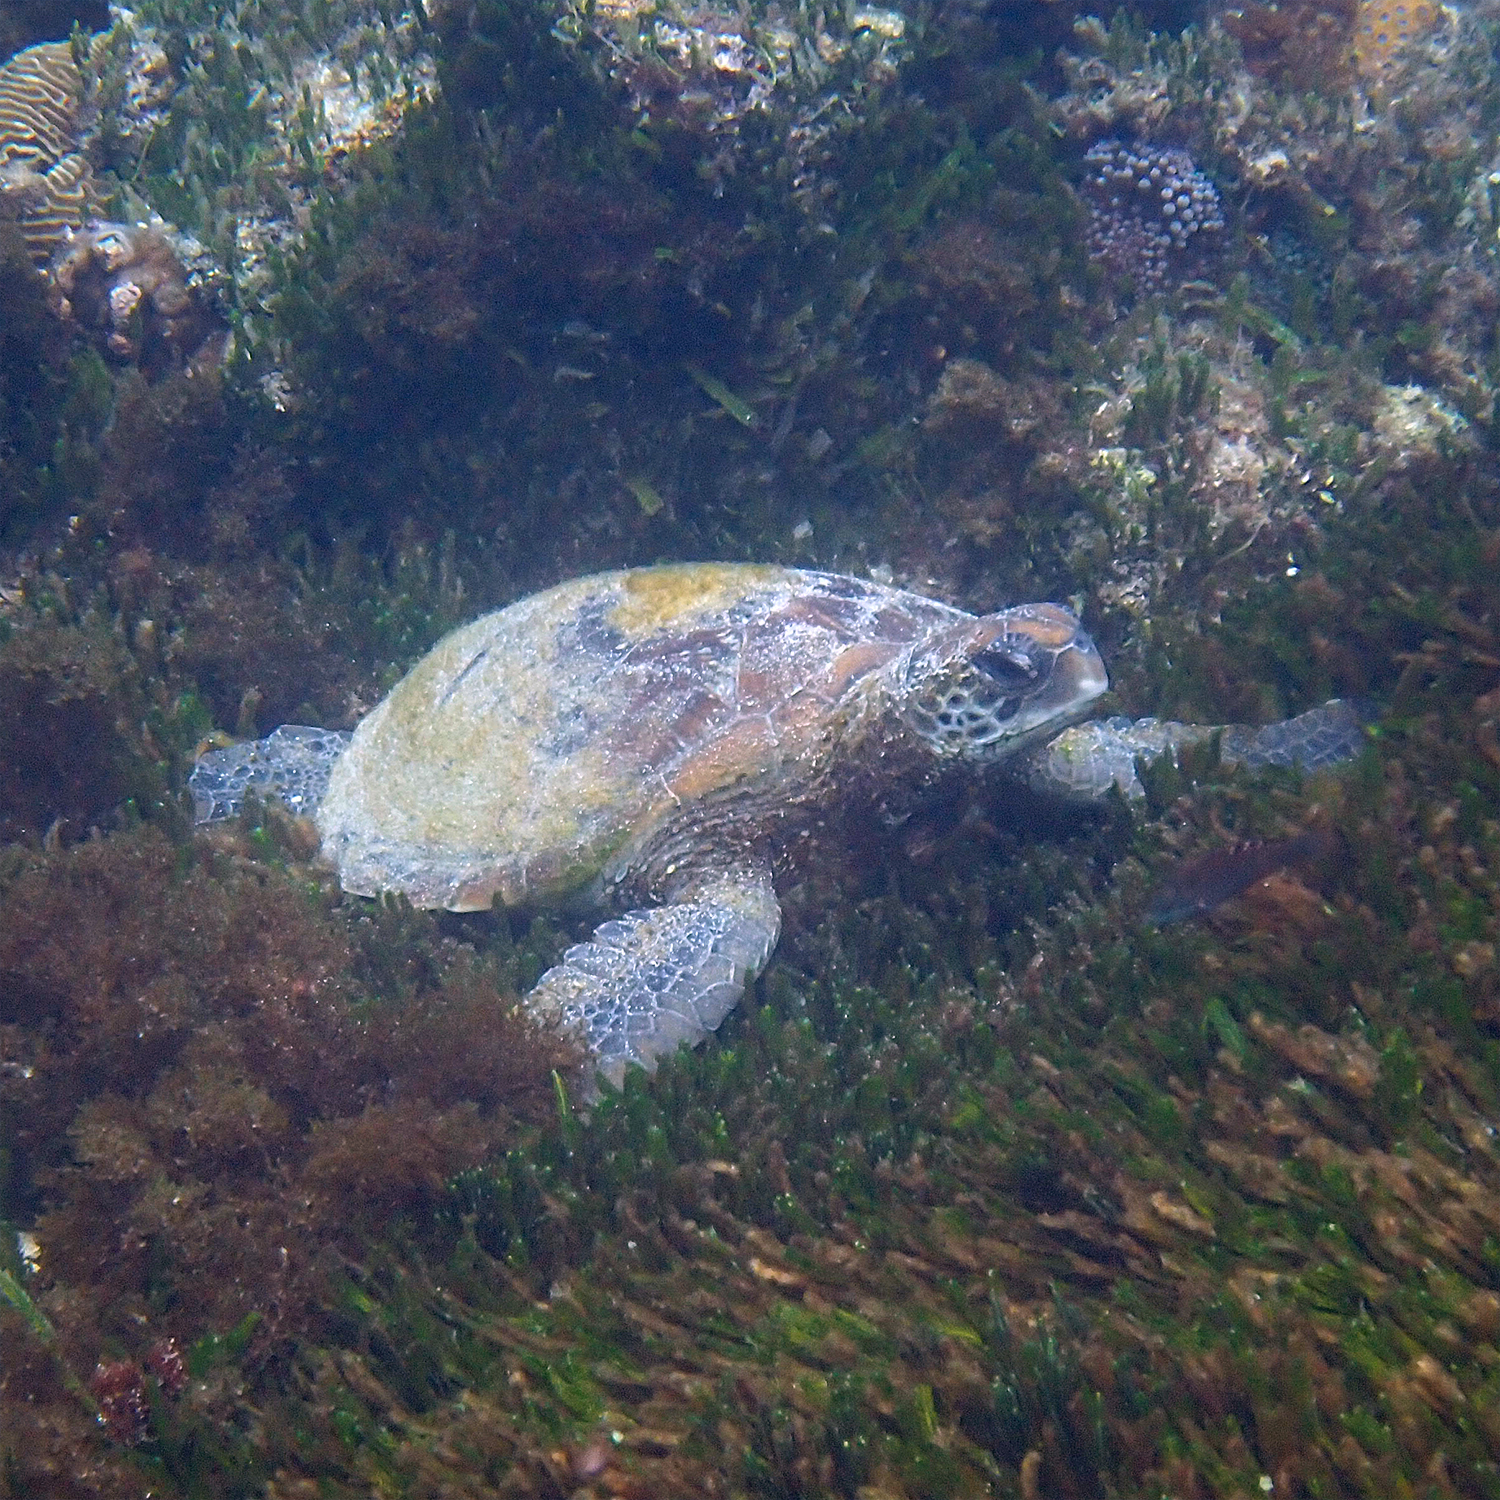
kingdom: Animalia
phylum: Chordata
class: Testudines
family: Cheloniidae
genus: Chelonia
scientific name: Chelonia mydas
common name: Green turtle
